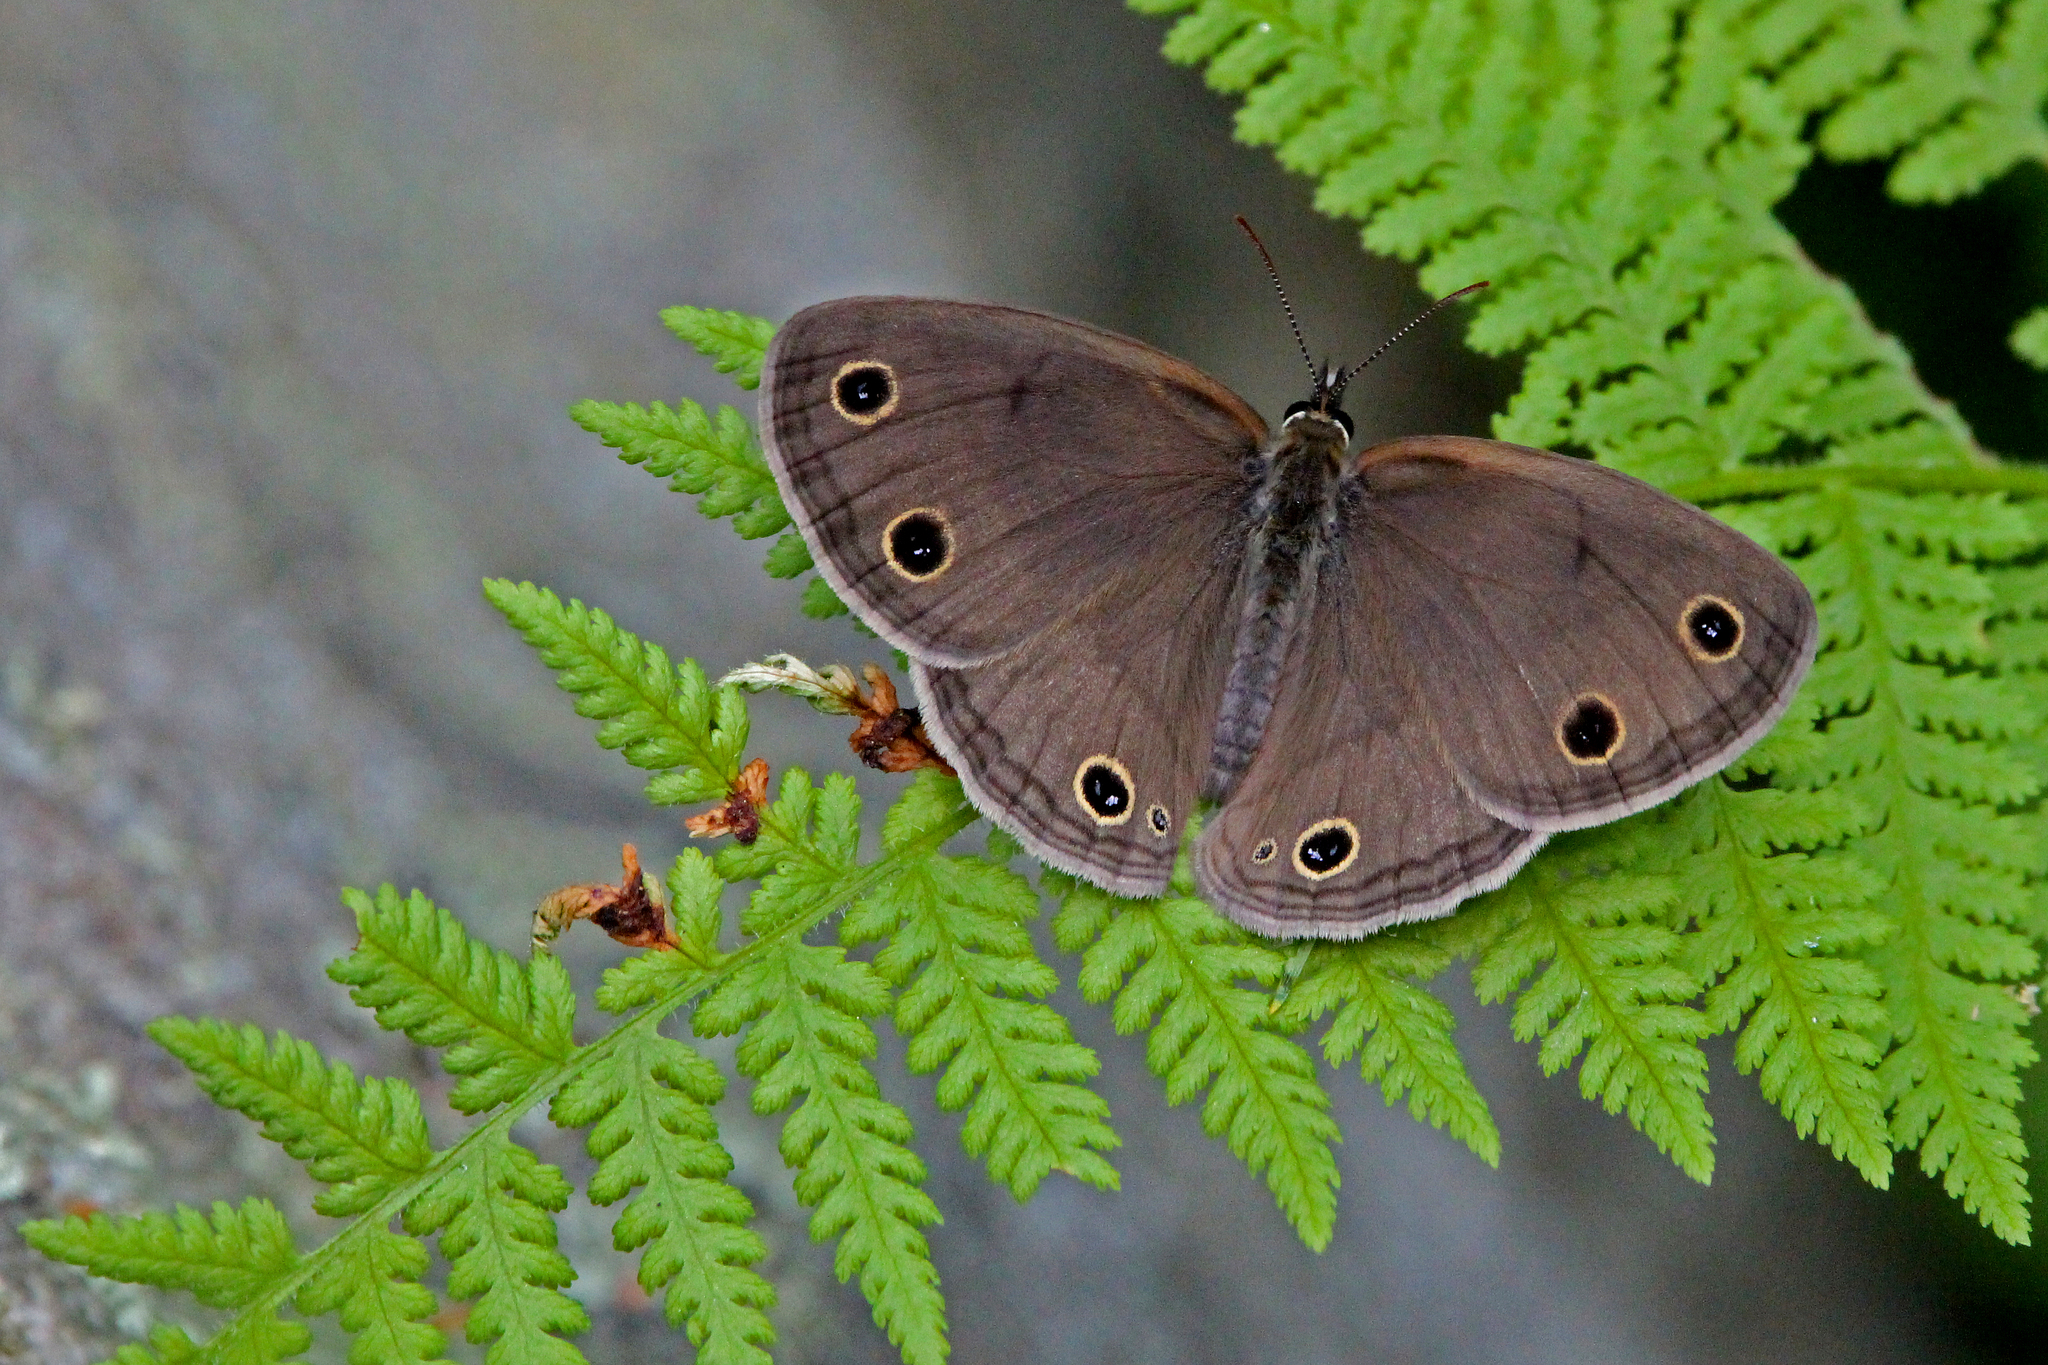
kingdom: Animalia
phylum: Arthropoda
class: Insecta
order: Lepidoptera
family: Nymphalidae
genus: Euptychia
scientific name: Euptychia cymela
